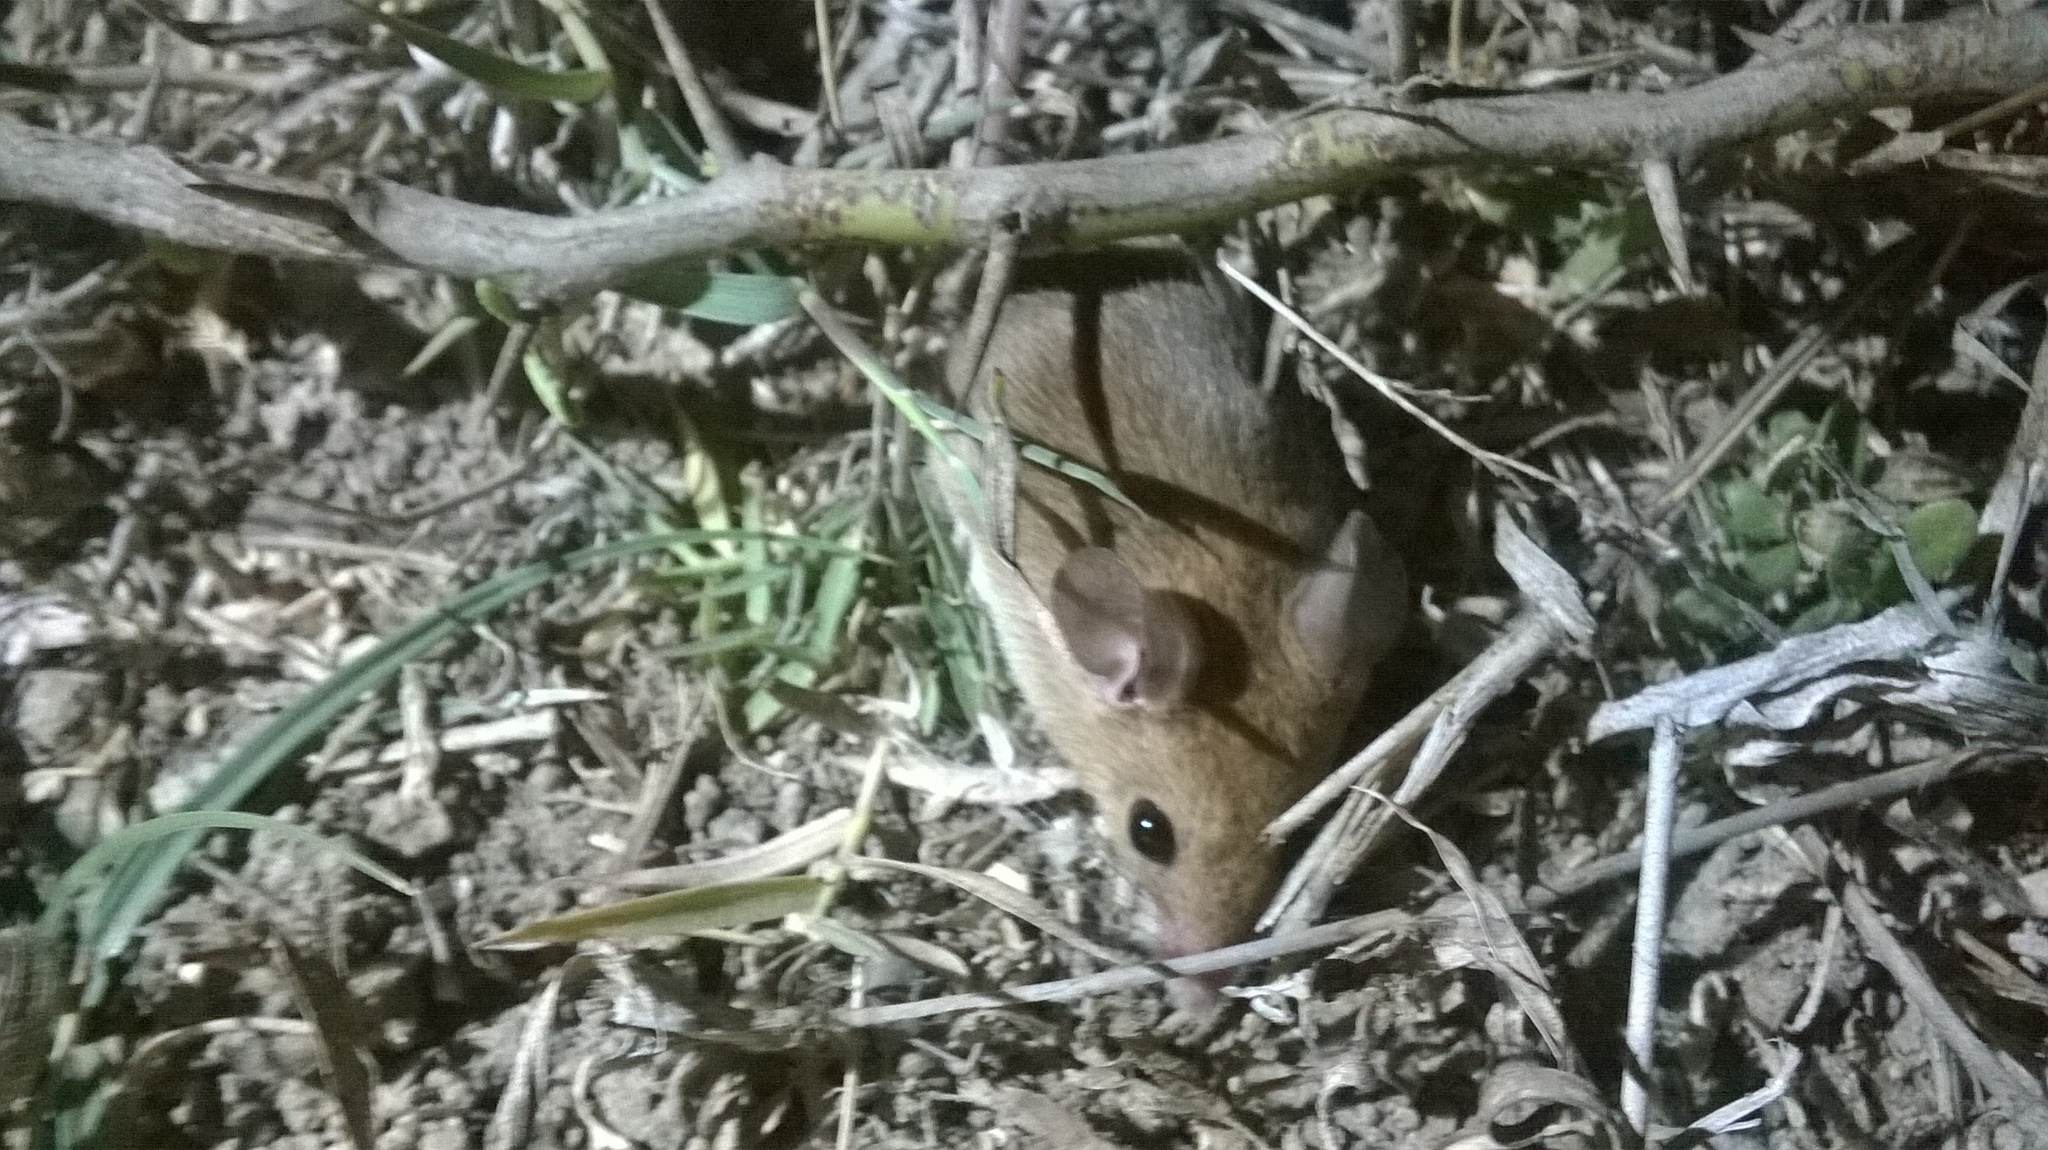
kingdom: Animalia
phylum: Chordata
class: Mammalia
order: Rodentia
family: Muridae
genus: Mus
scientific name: Mus booduga
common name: Little indian field mouse
